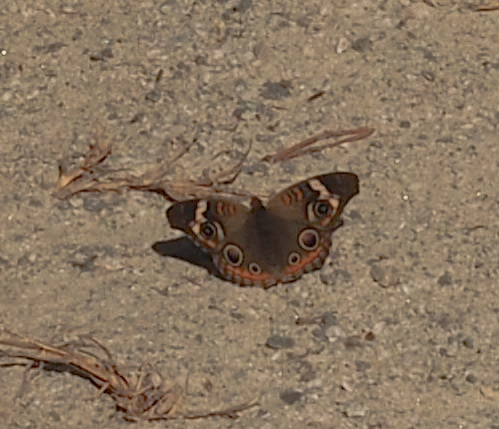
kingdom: Animalia
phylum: Arthropoda
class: Insecta
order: Lepidoptera
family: Nymphalidae
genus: Junonia
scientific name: Junonia coenia
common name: Common buckeye
